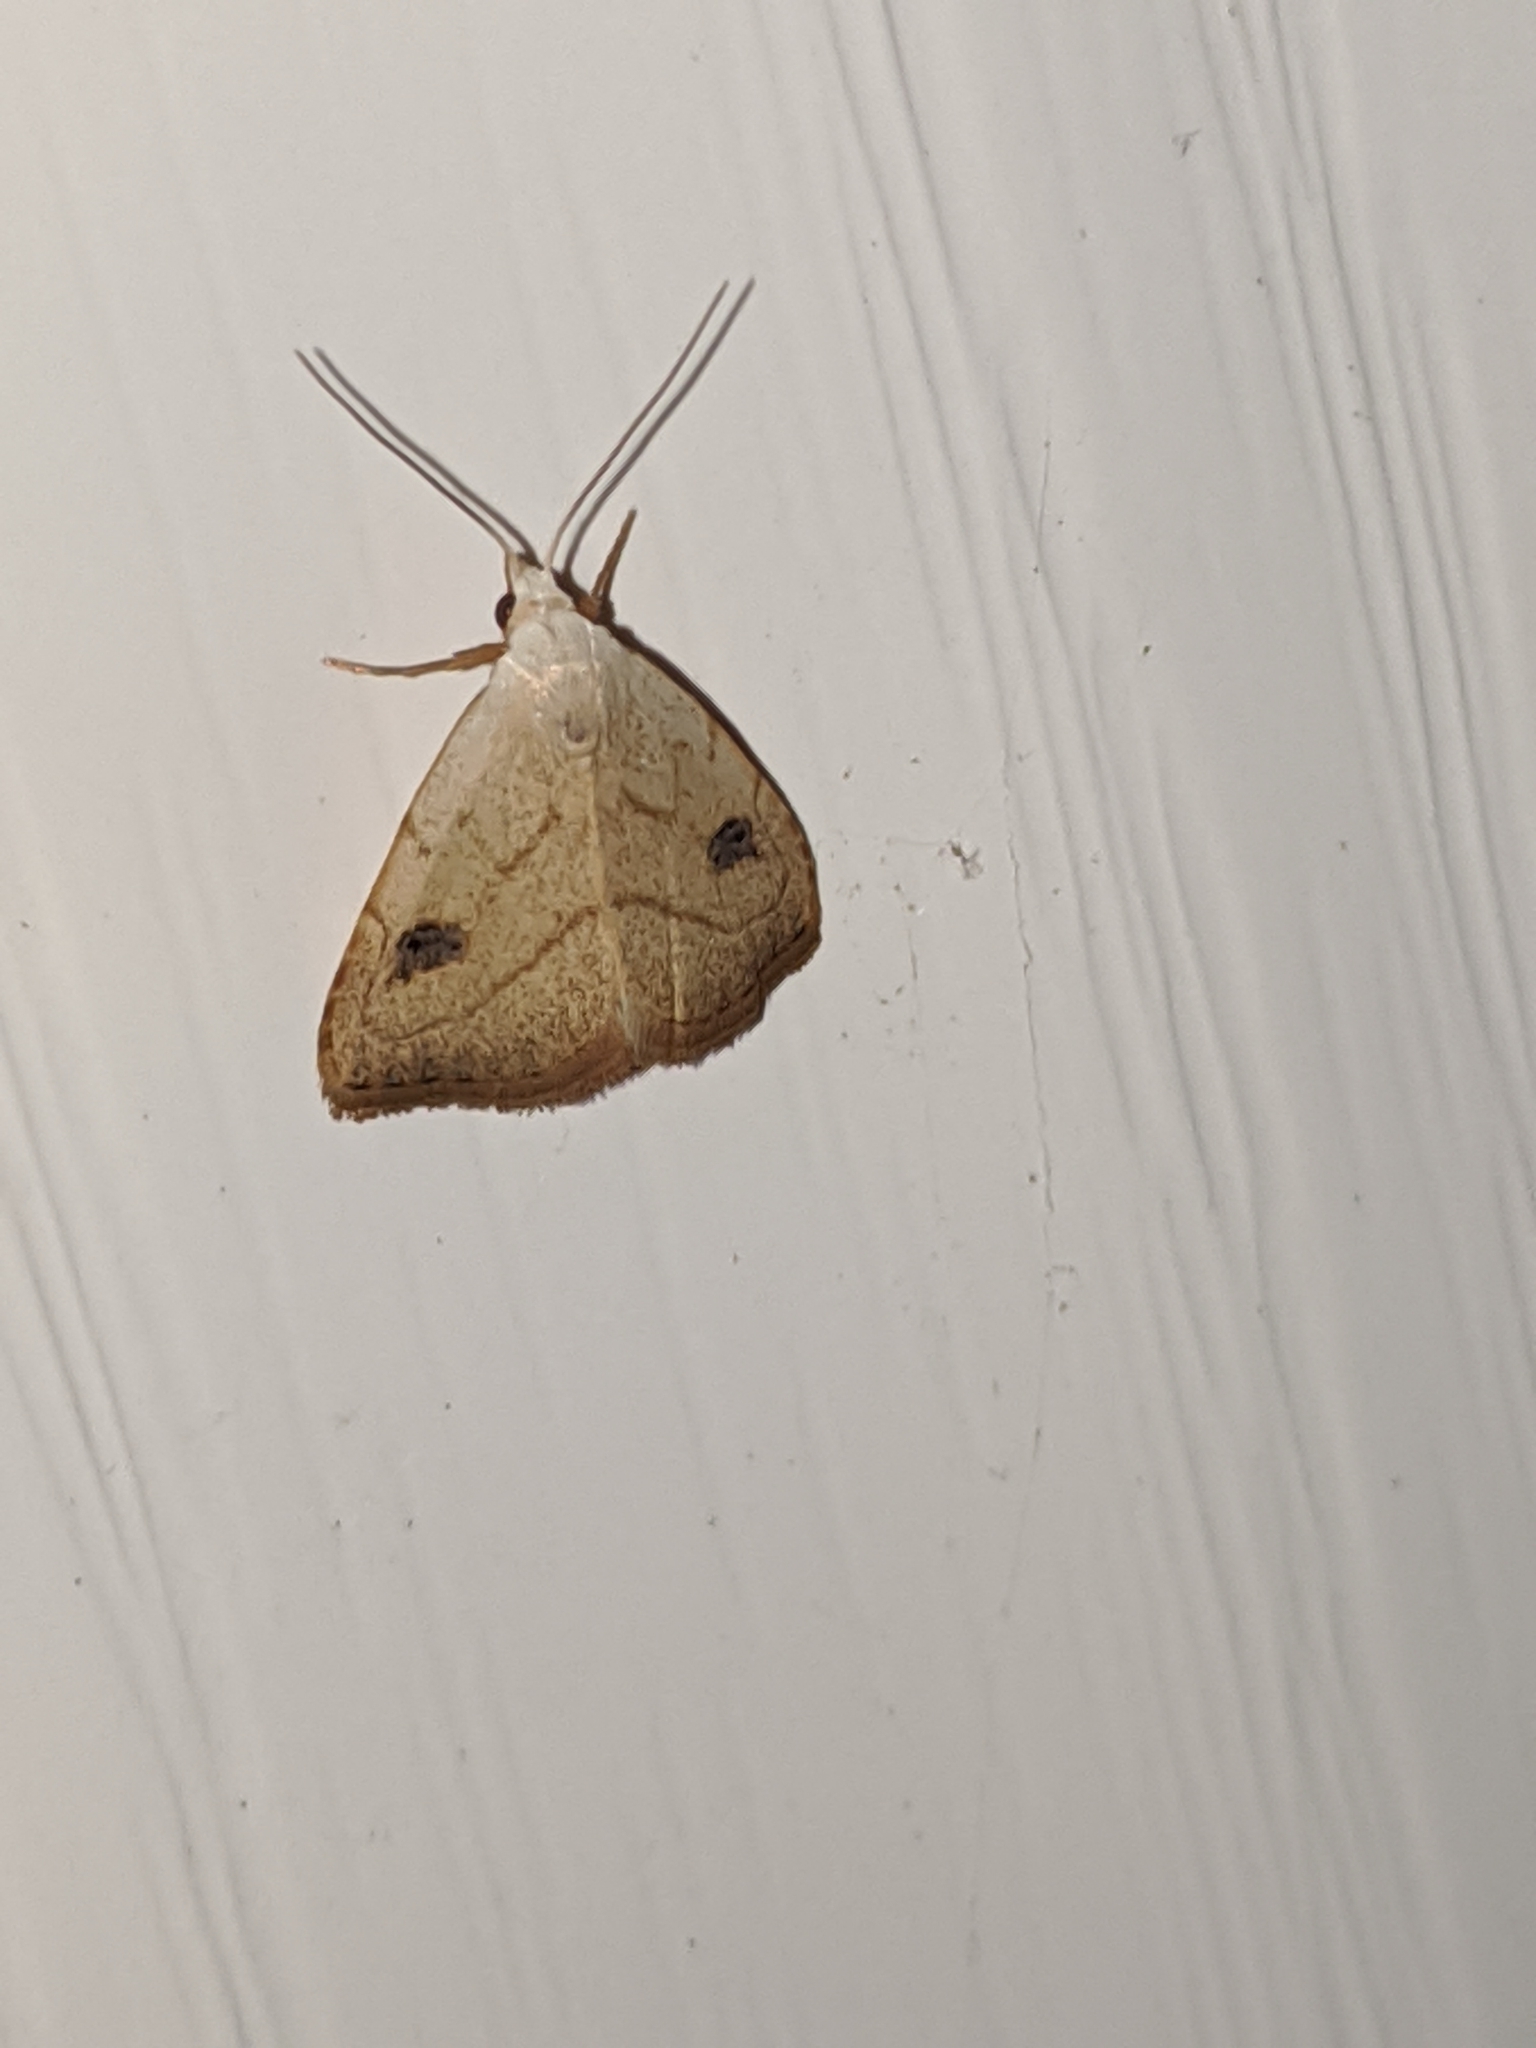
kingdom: Animalia
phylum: Arthropoda
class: Insecta
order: Lepidoptera
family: Erebidae
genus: Rivula
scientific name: Rivula propinqualis
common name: Spotted grass moth
